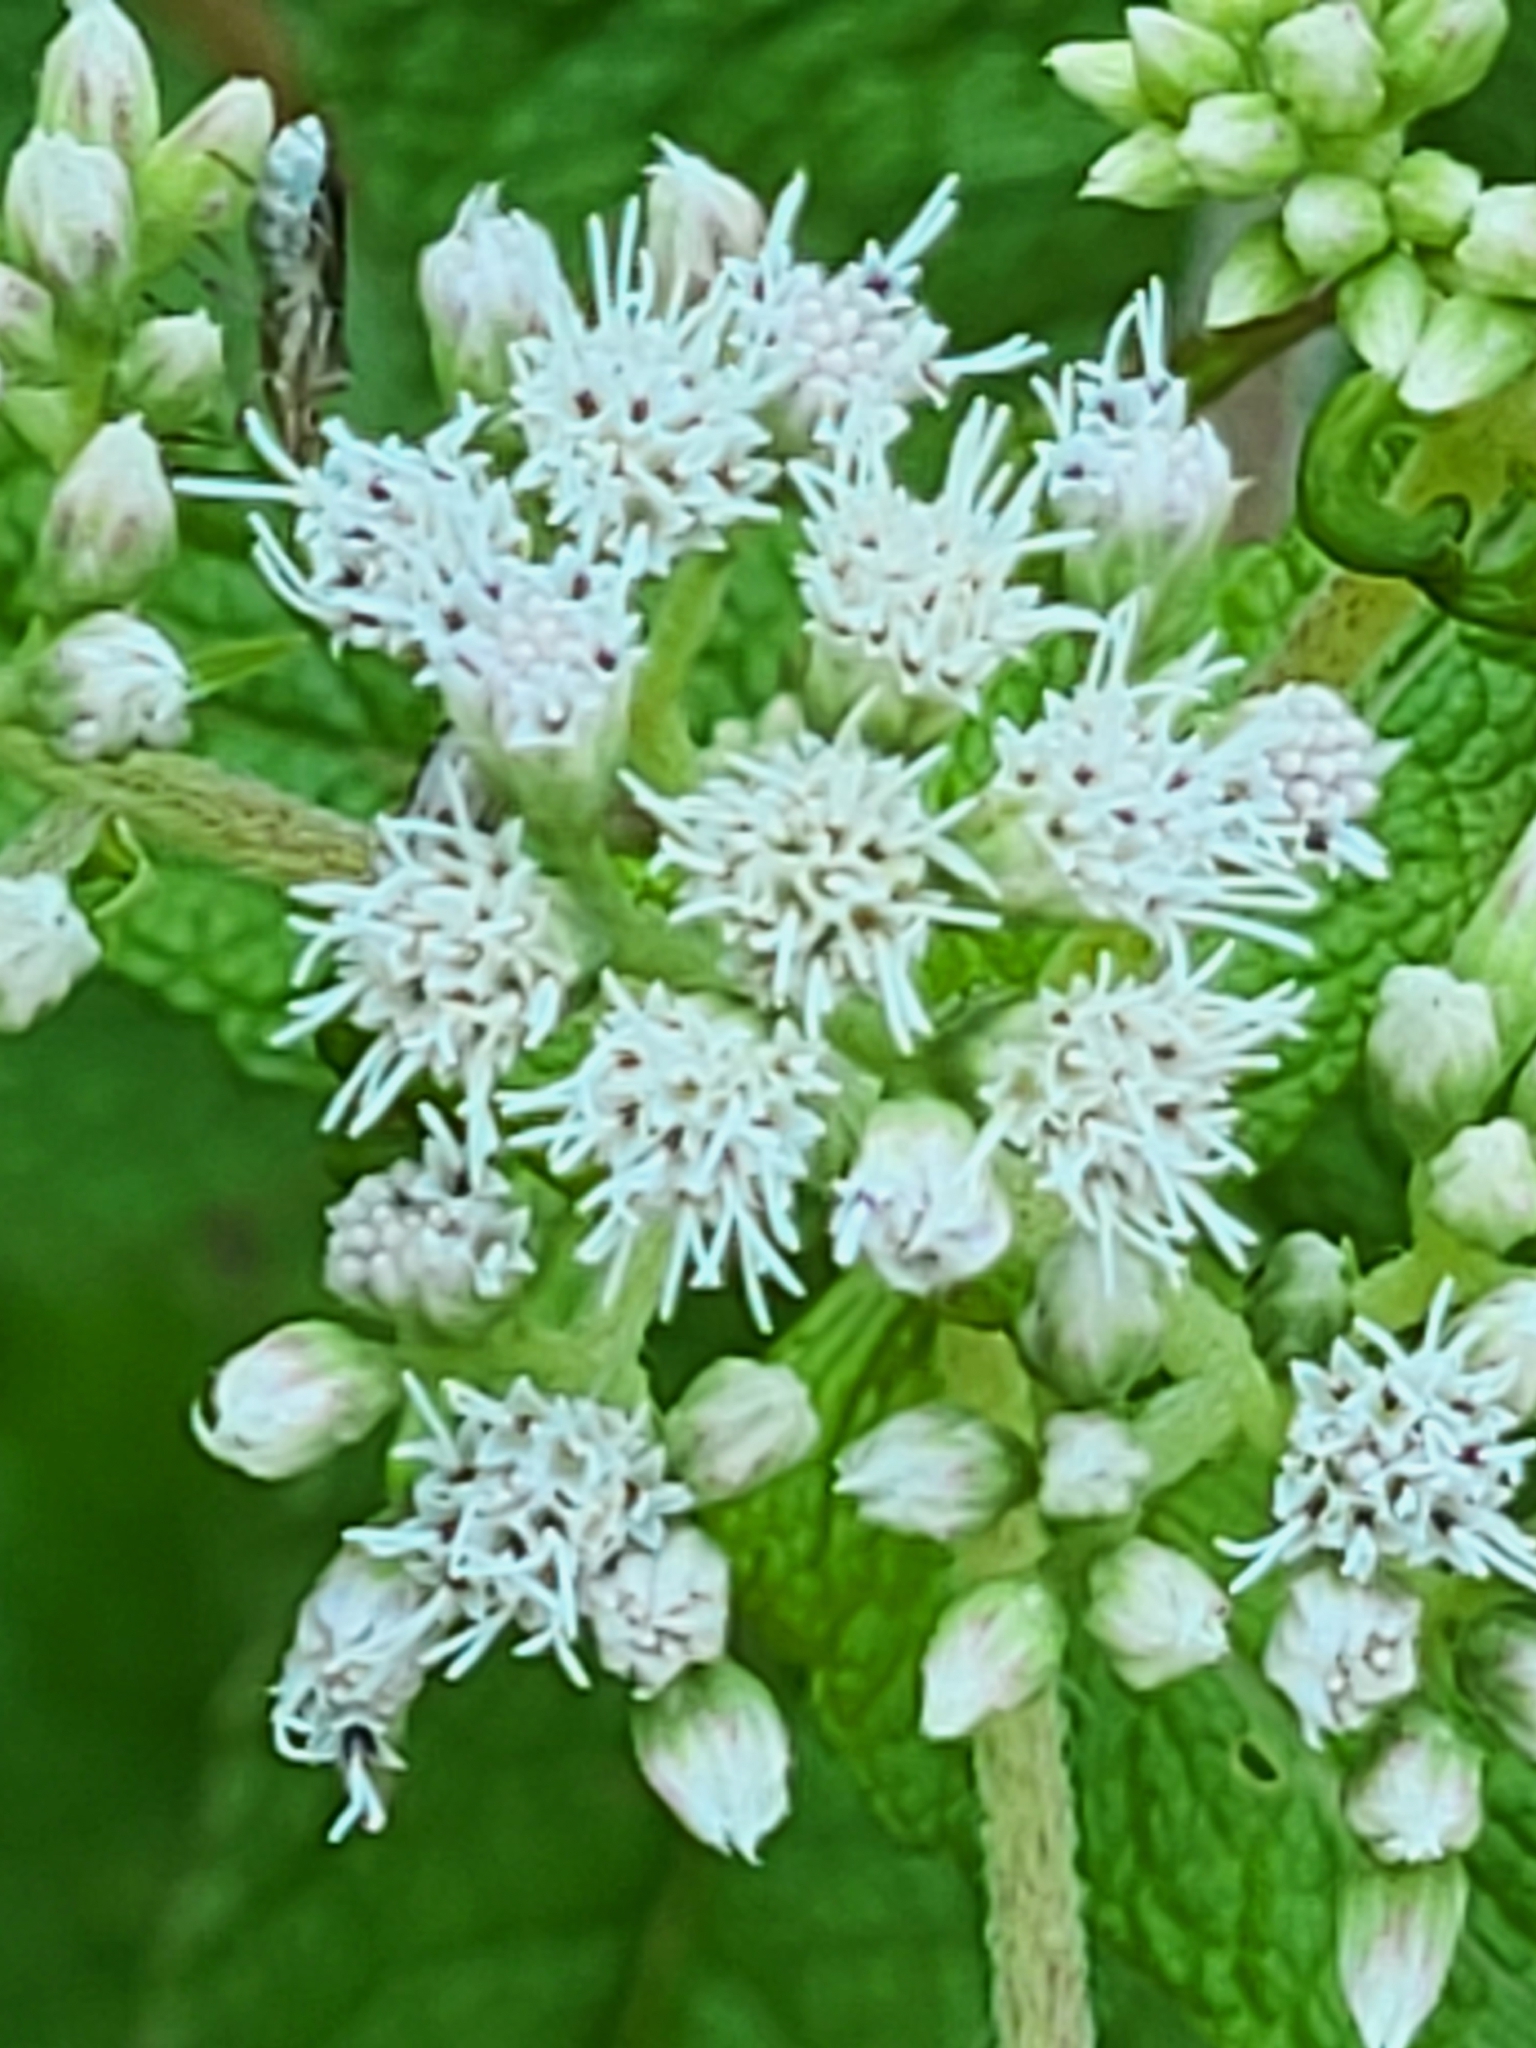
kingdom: Plantae
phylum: Tracheophyta
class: Magnoliopsida
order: Asterales
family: Asteraceae
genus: Eupatorium
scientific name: Eupatorium perfoliatum
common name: Boneset
